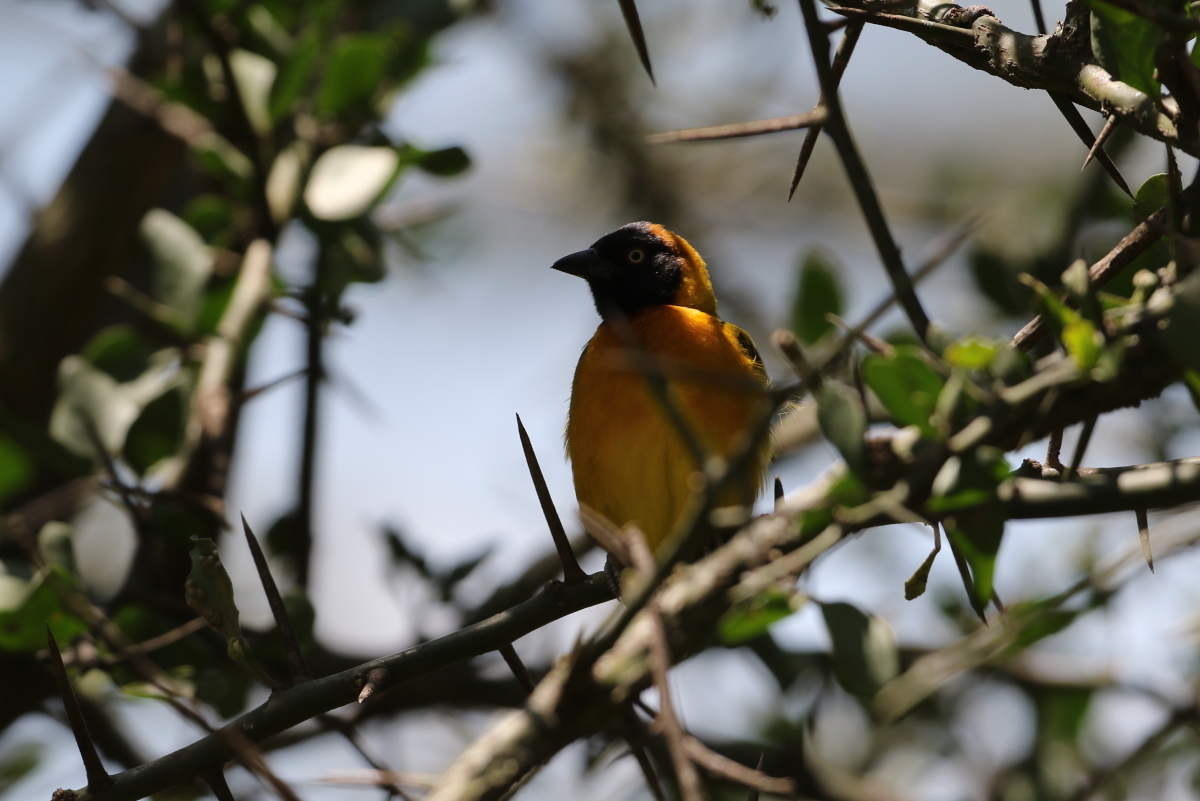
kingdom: Animalia
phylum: Chordata
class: Aves
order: Passeriformes
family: Ploceidae
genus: Ploceus
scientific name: Ploceus intermedius
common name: Lesser masked weaver
